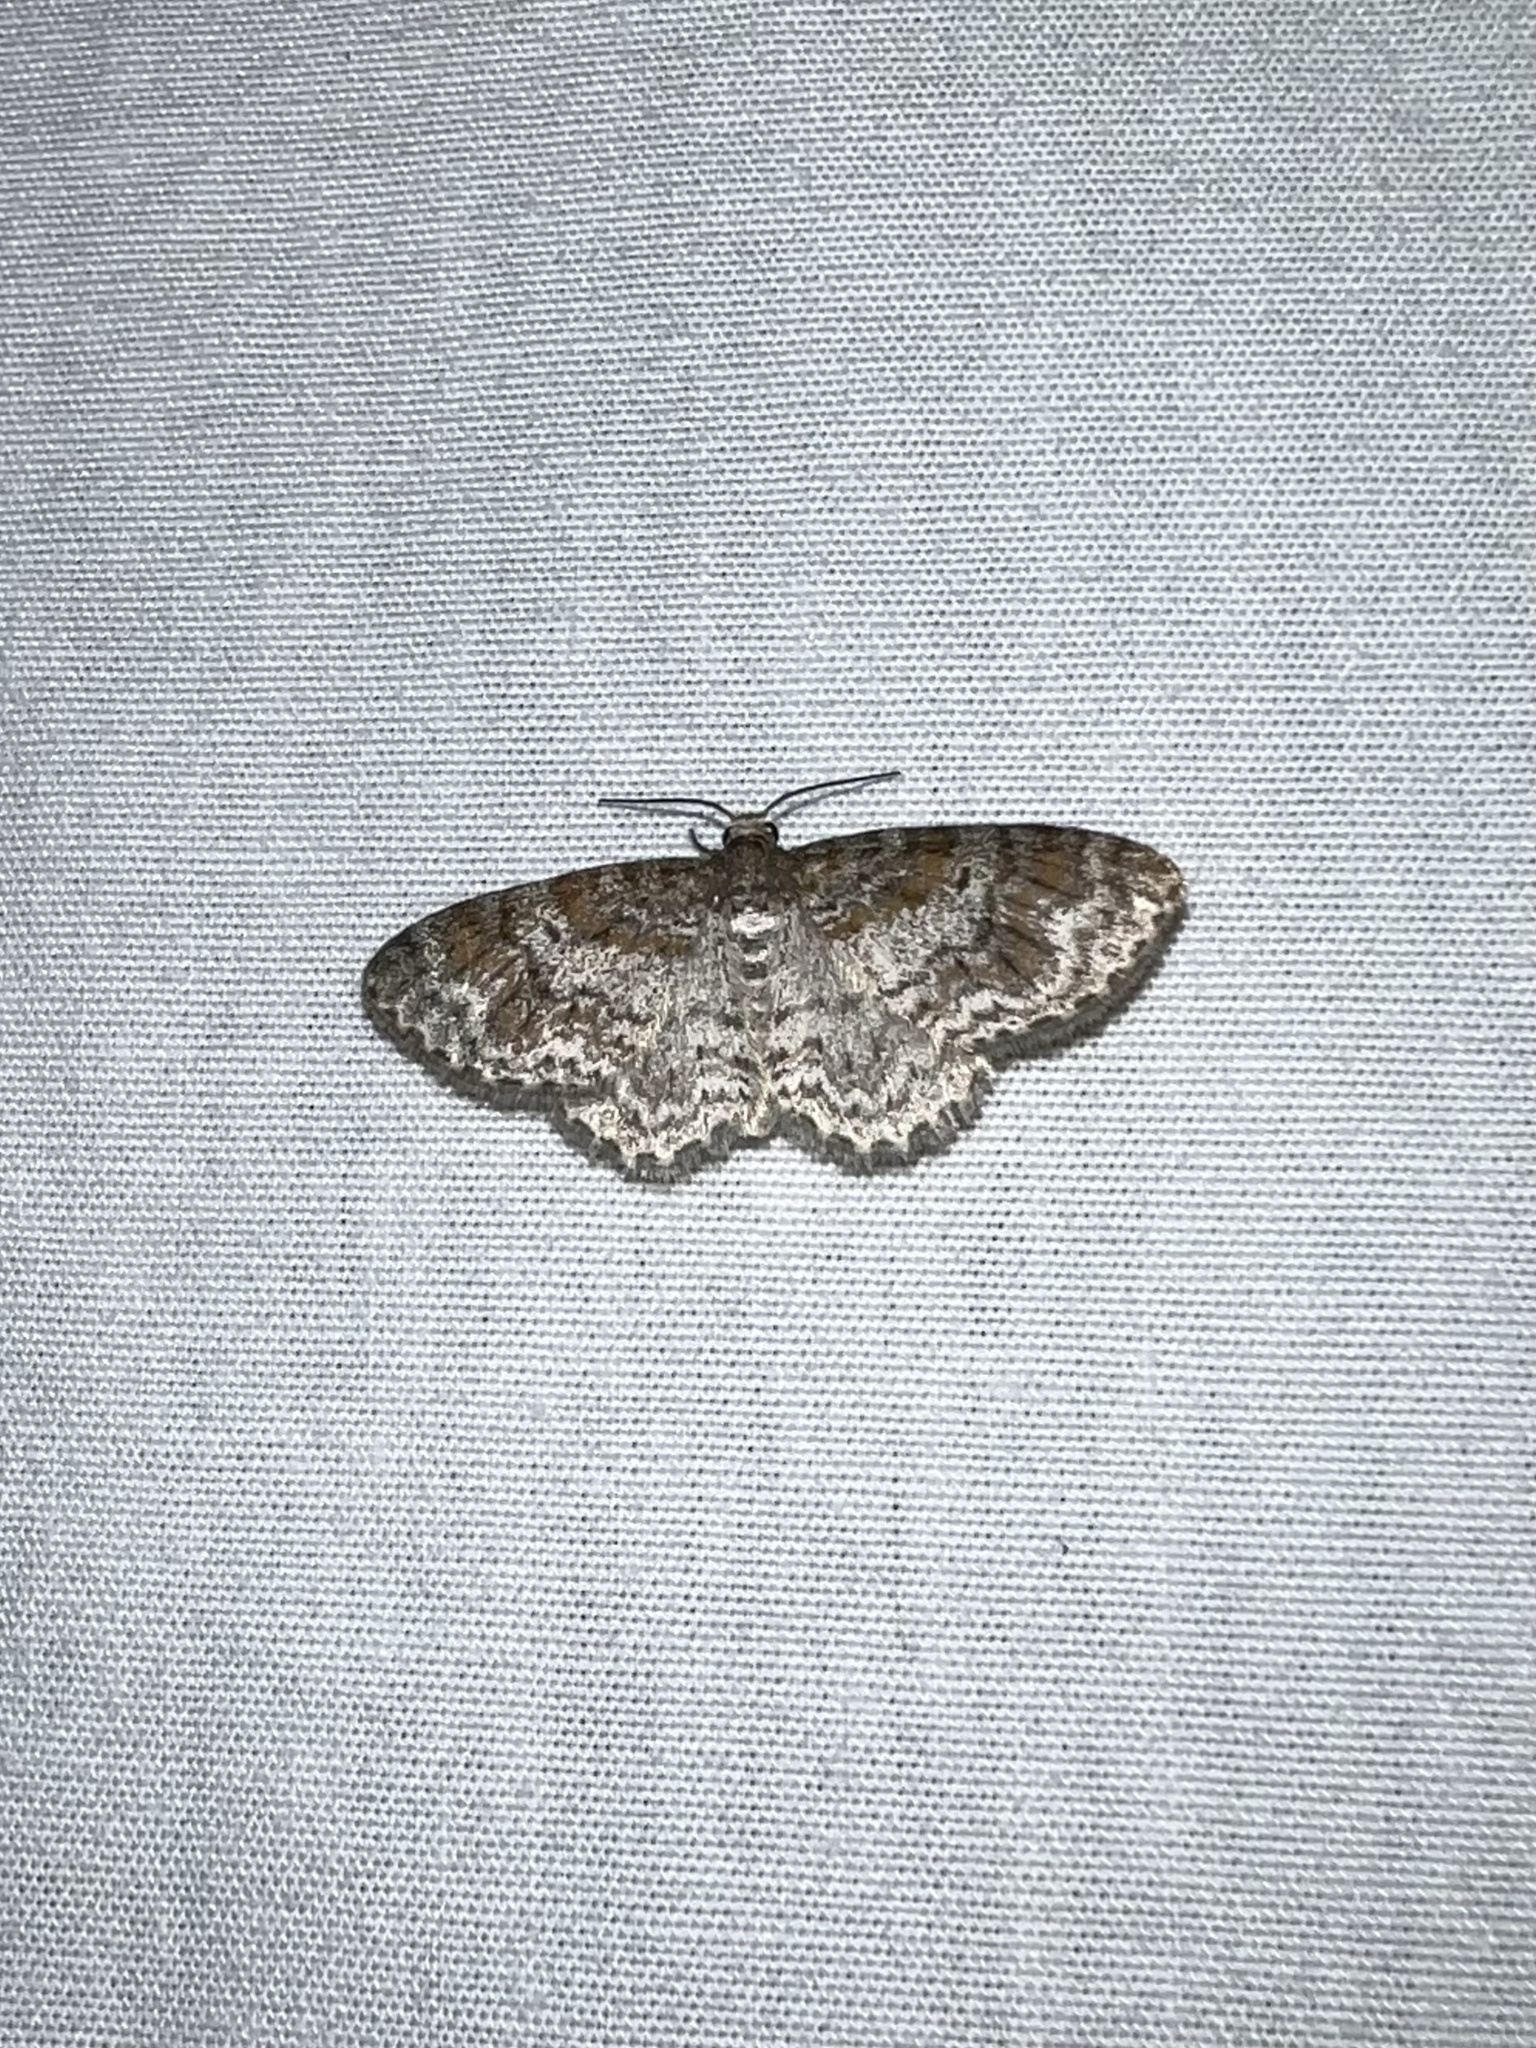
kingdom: Animalia
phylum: Arthropoda
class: Insecta
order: Lepidoptera
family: Geometridae
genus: Hydrelia
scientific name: Hydrelia inornata
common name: Unadorned carpet moth
